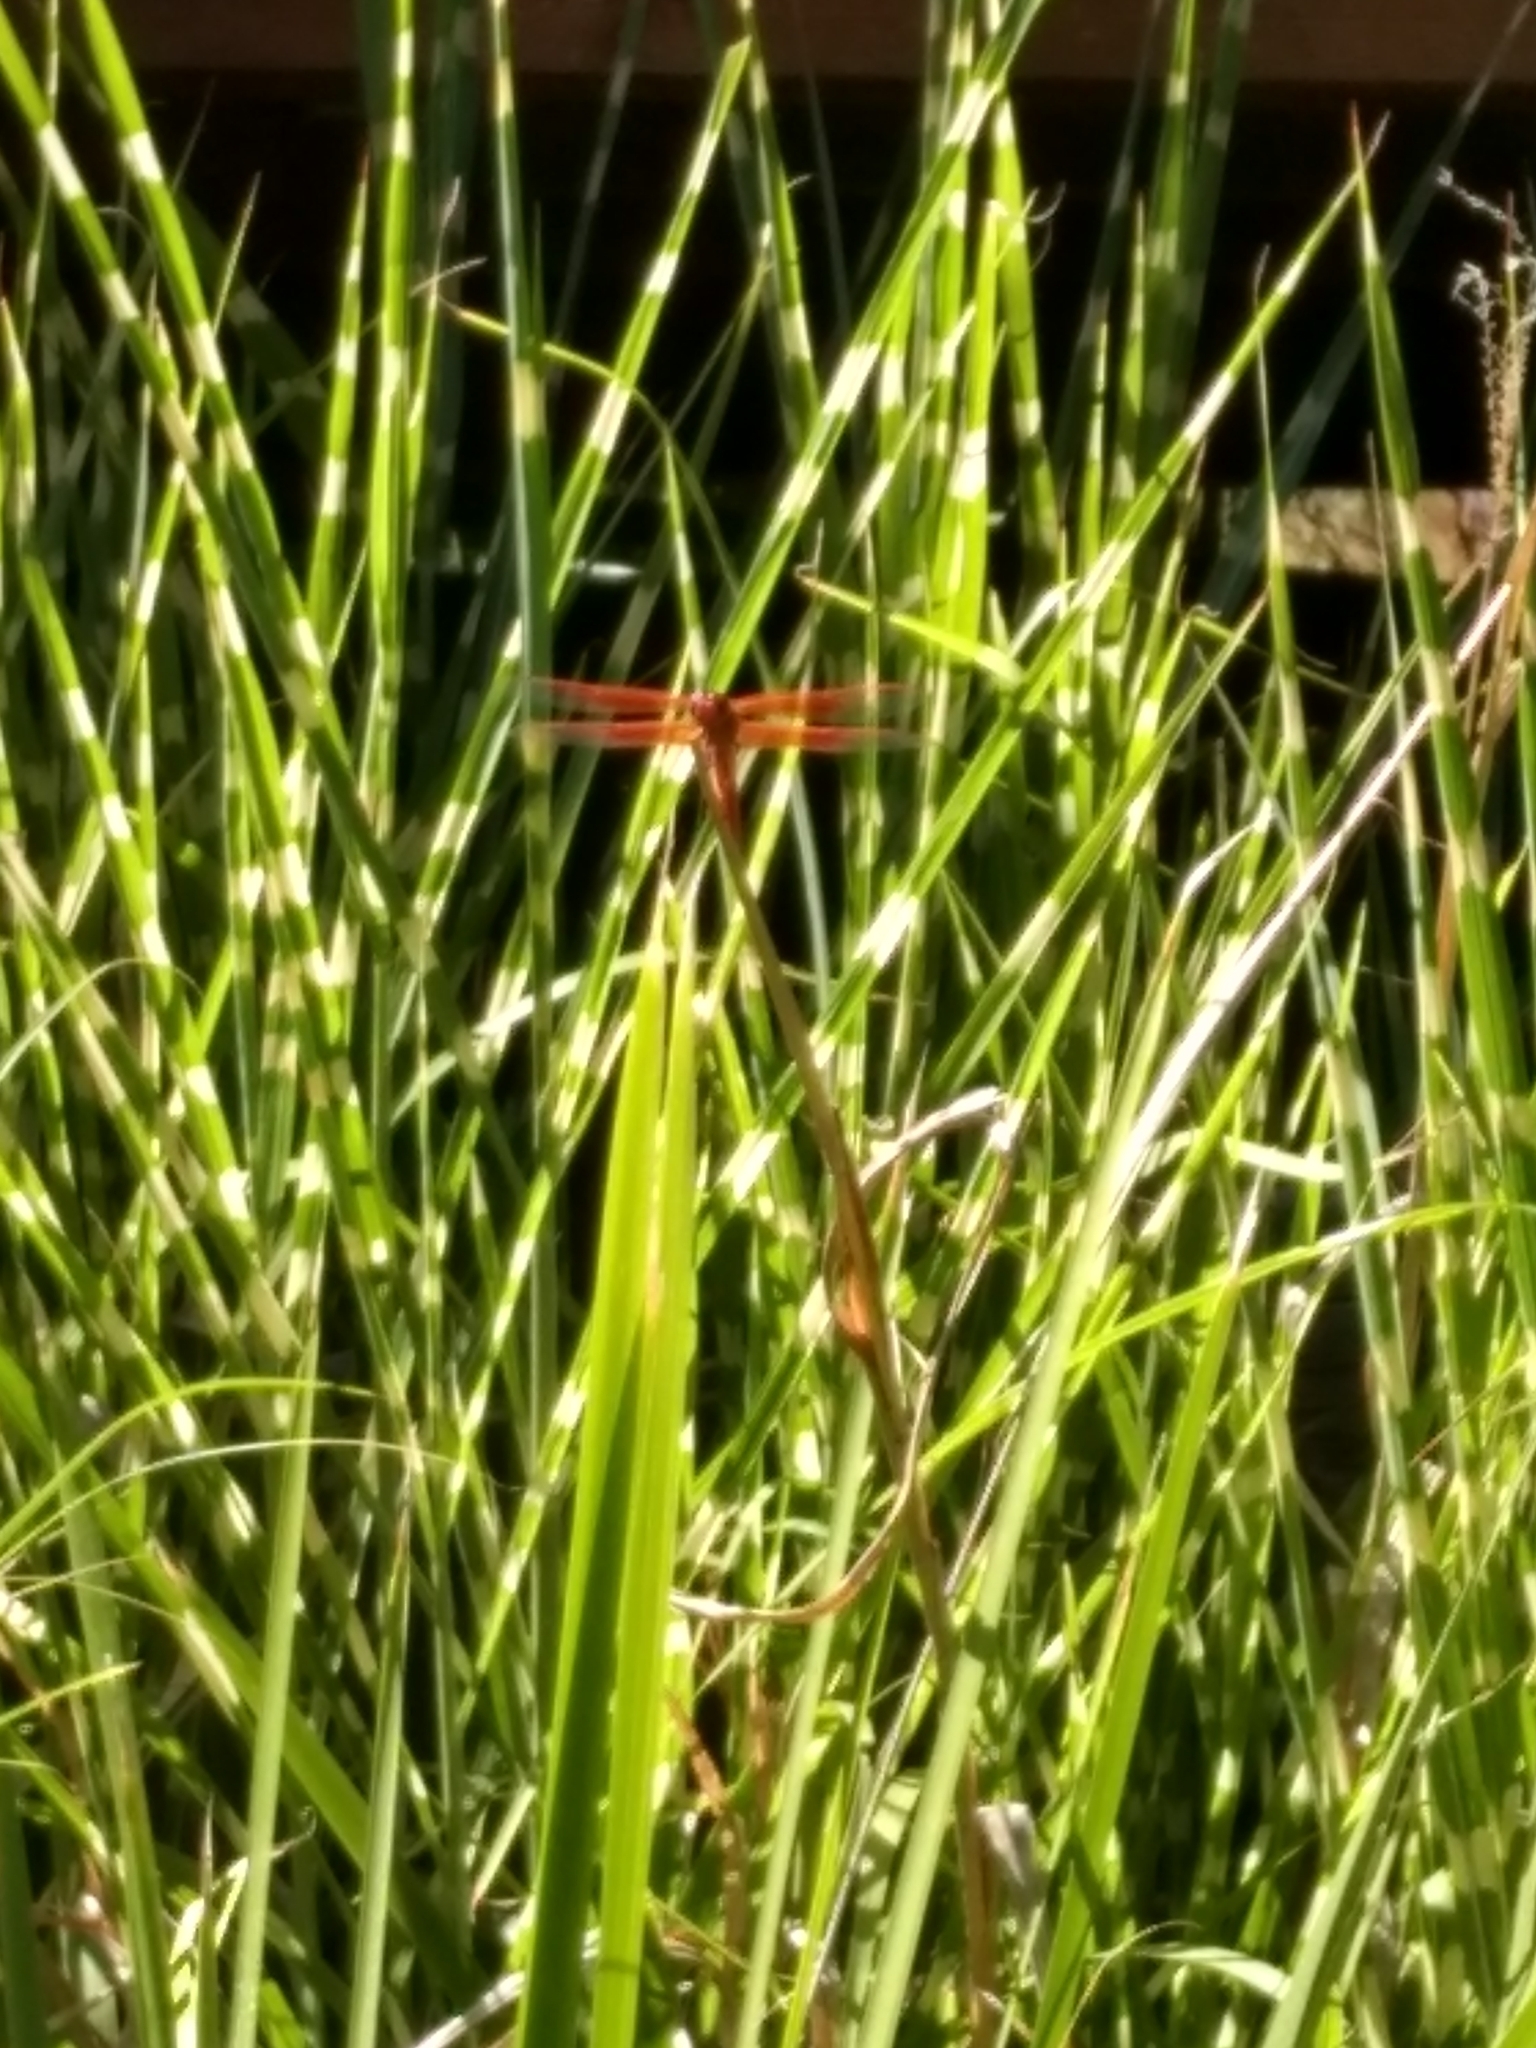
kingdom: Animalia
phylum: Arthropoda
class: Insecta
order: Odonata
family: Libellulidae
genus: Libellula
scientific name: Libellula saturata
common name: Flame skimmer
